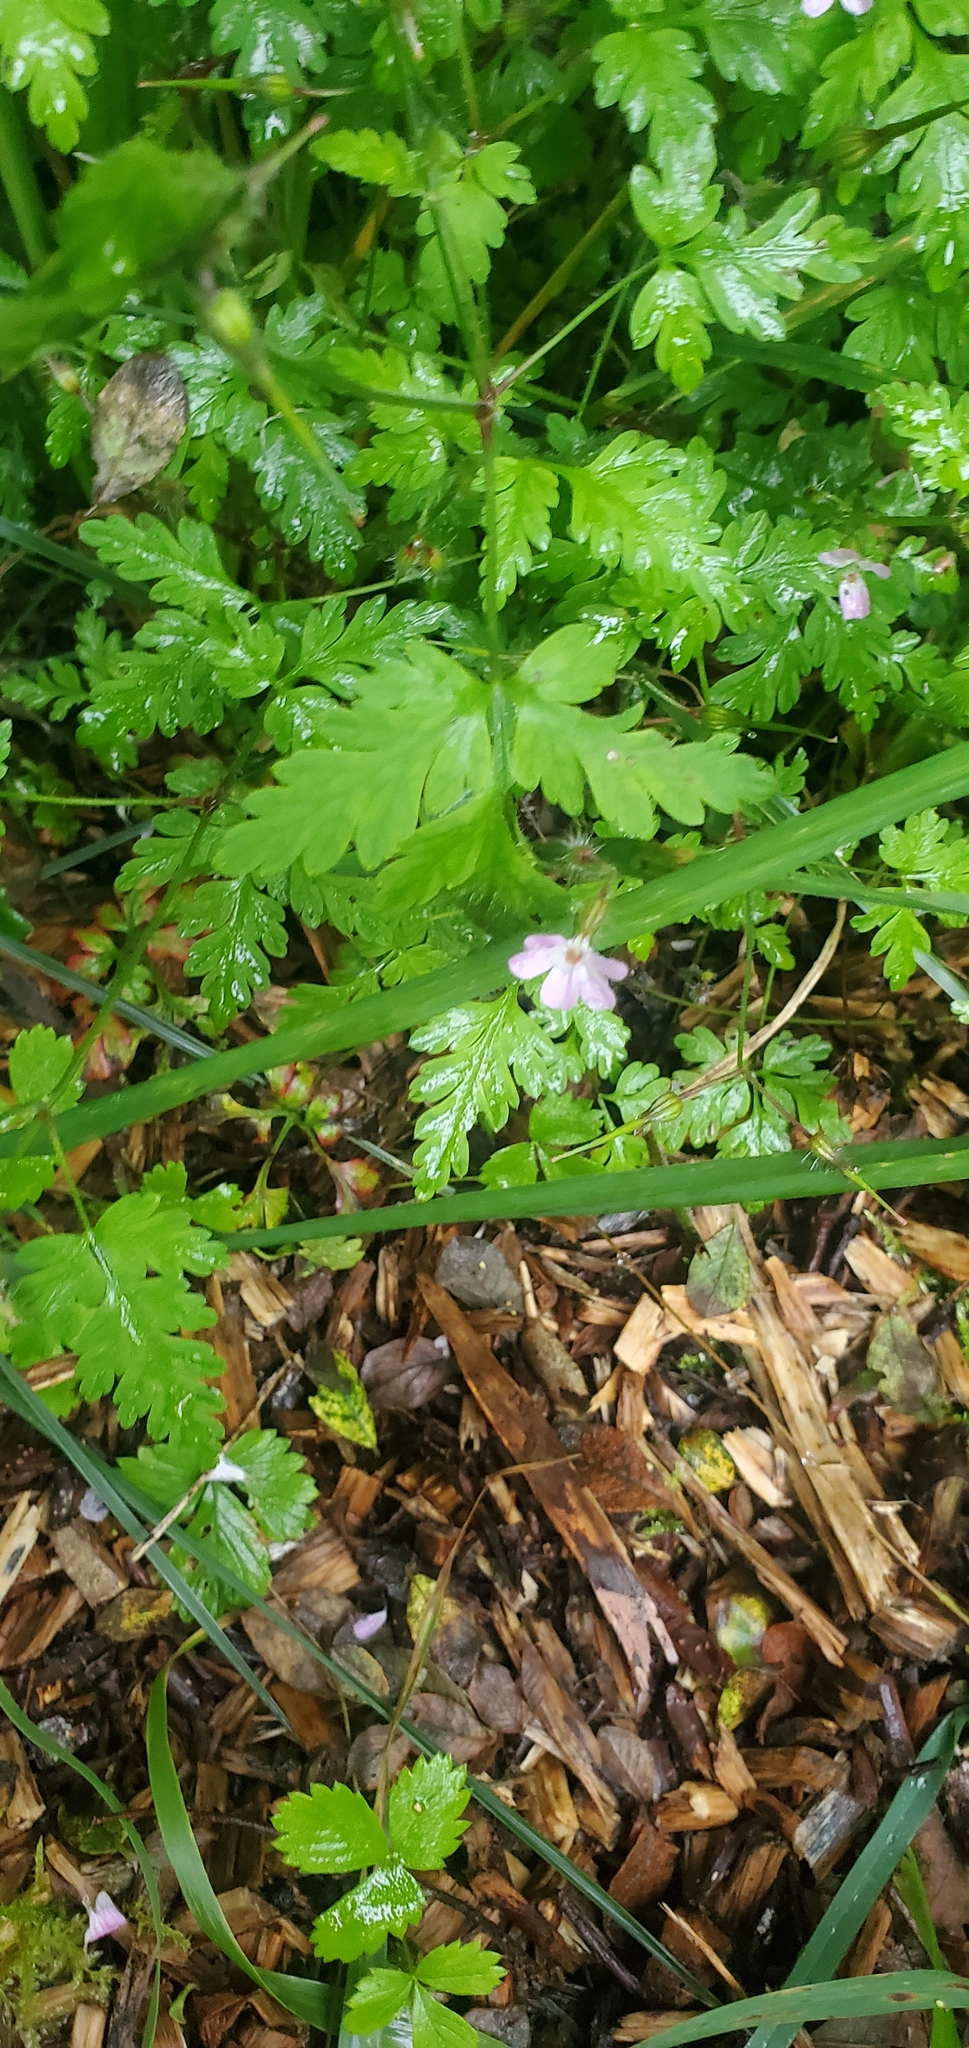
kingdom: Plantae
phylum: Tracheophyta
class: Magnoliopsida
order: Geraniales
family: Geraniaceae
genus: Geranium
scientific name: Geranium robertianum
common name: Herb-robert
